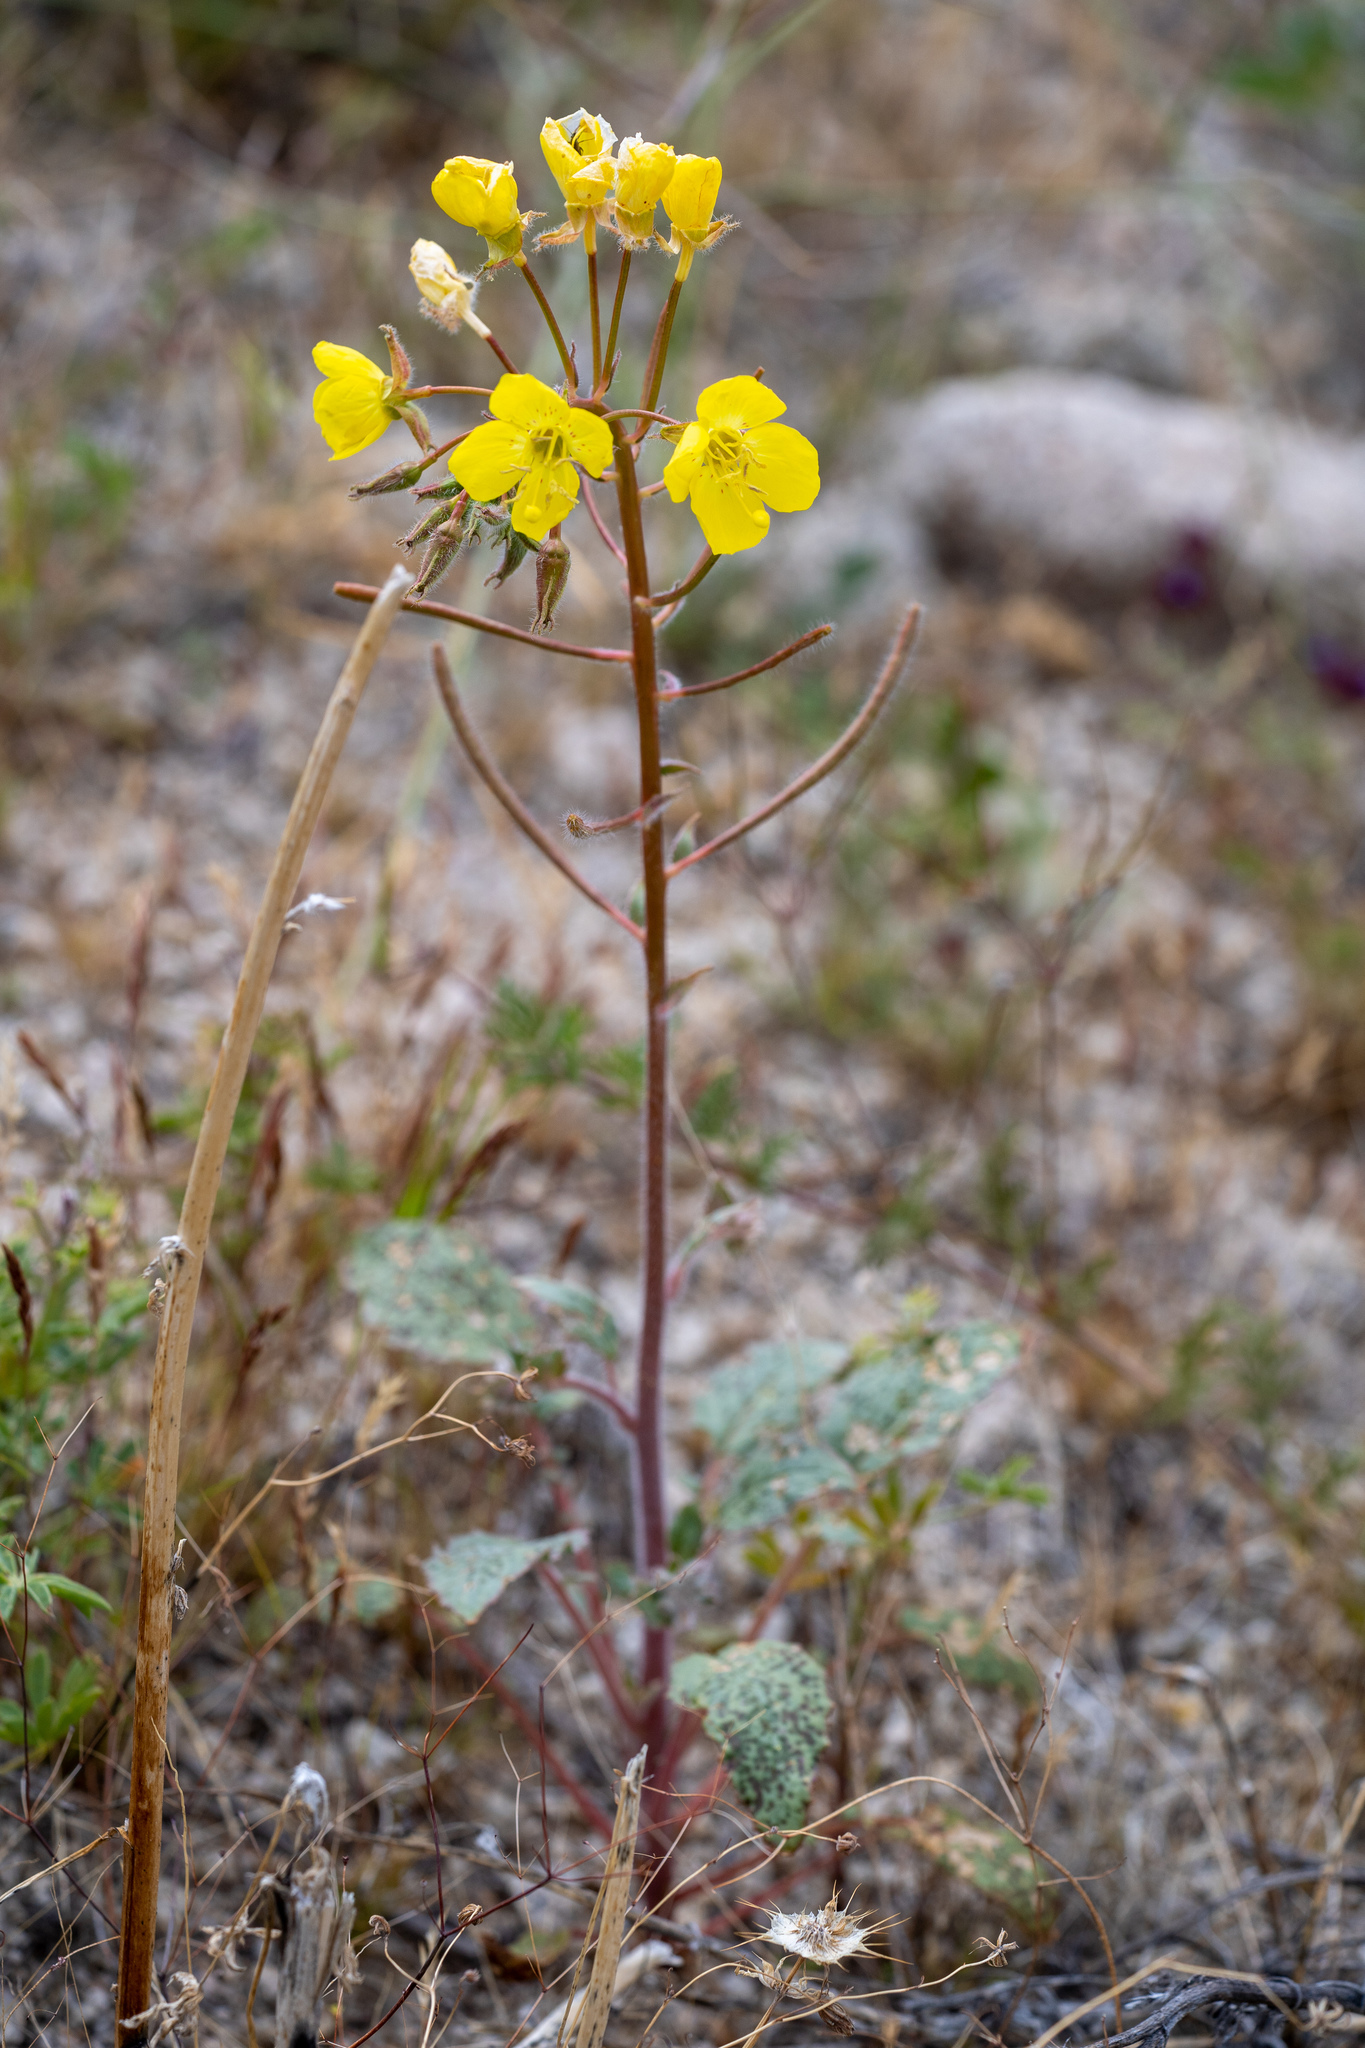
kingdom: Plantae
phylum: Tracheophyta
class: Magnoliopsida
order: Myrtales
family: Onagraceae
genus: Chylismia
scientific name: Chylismia brevipes
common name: Yellow cups
